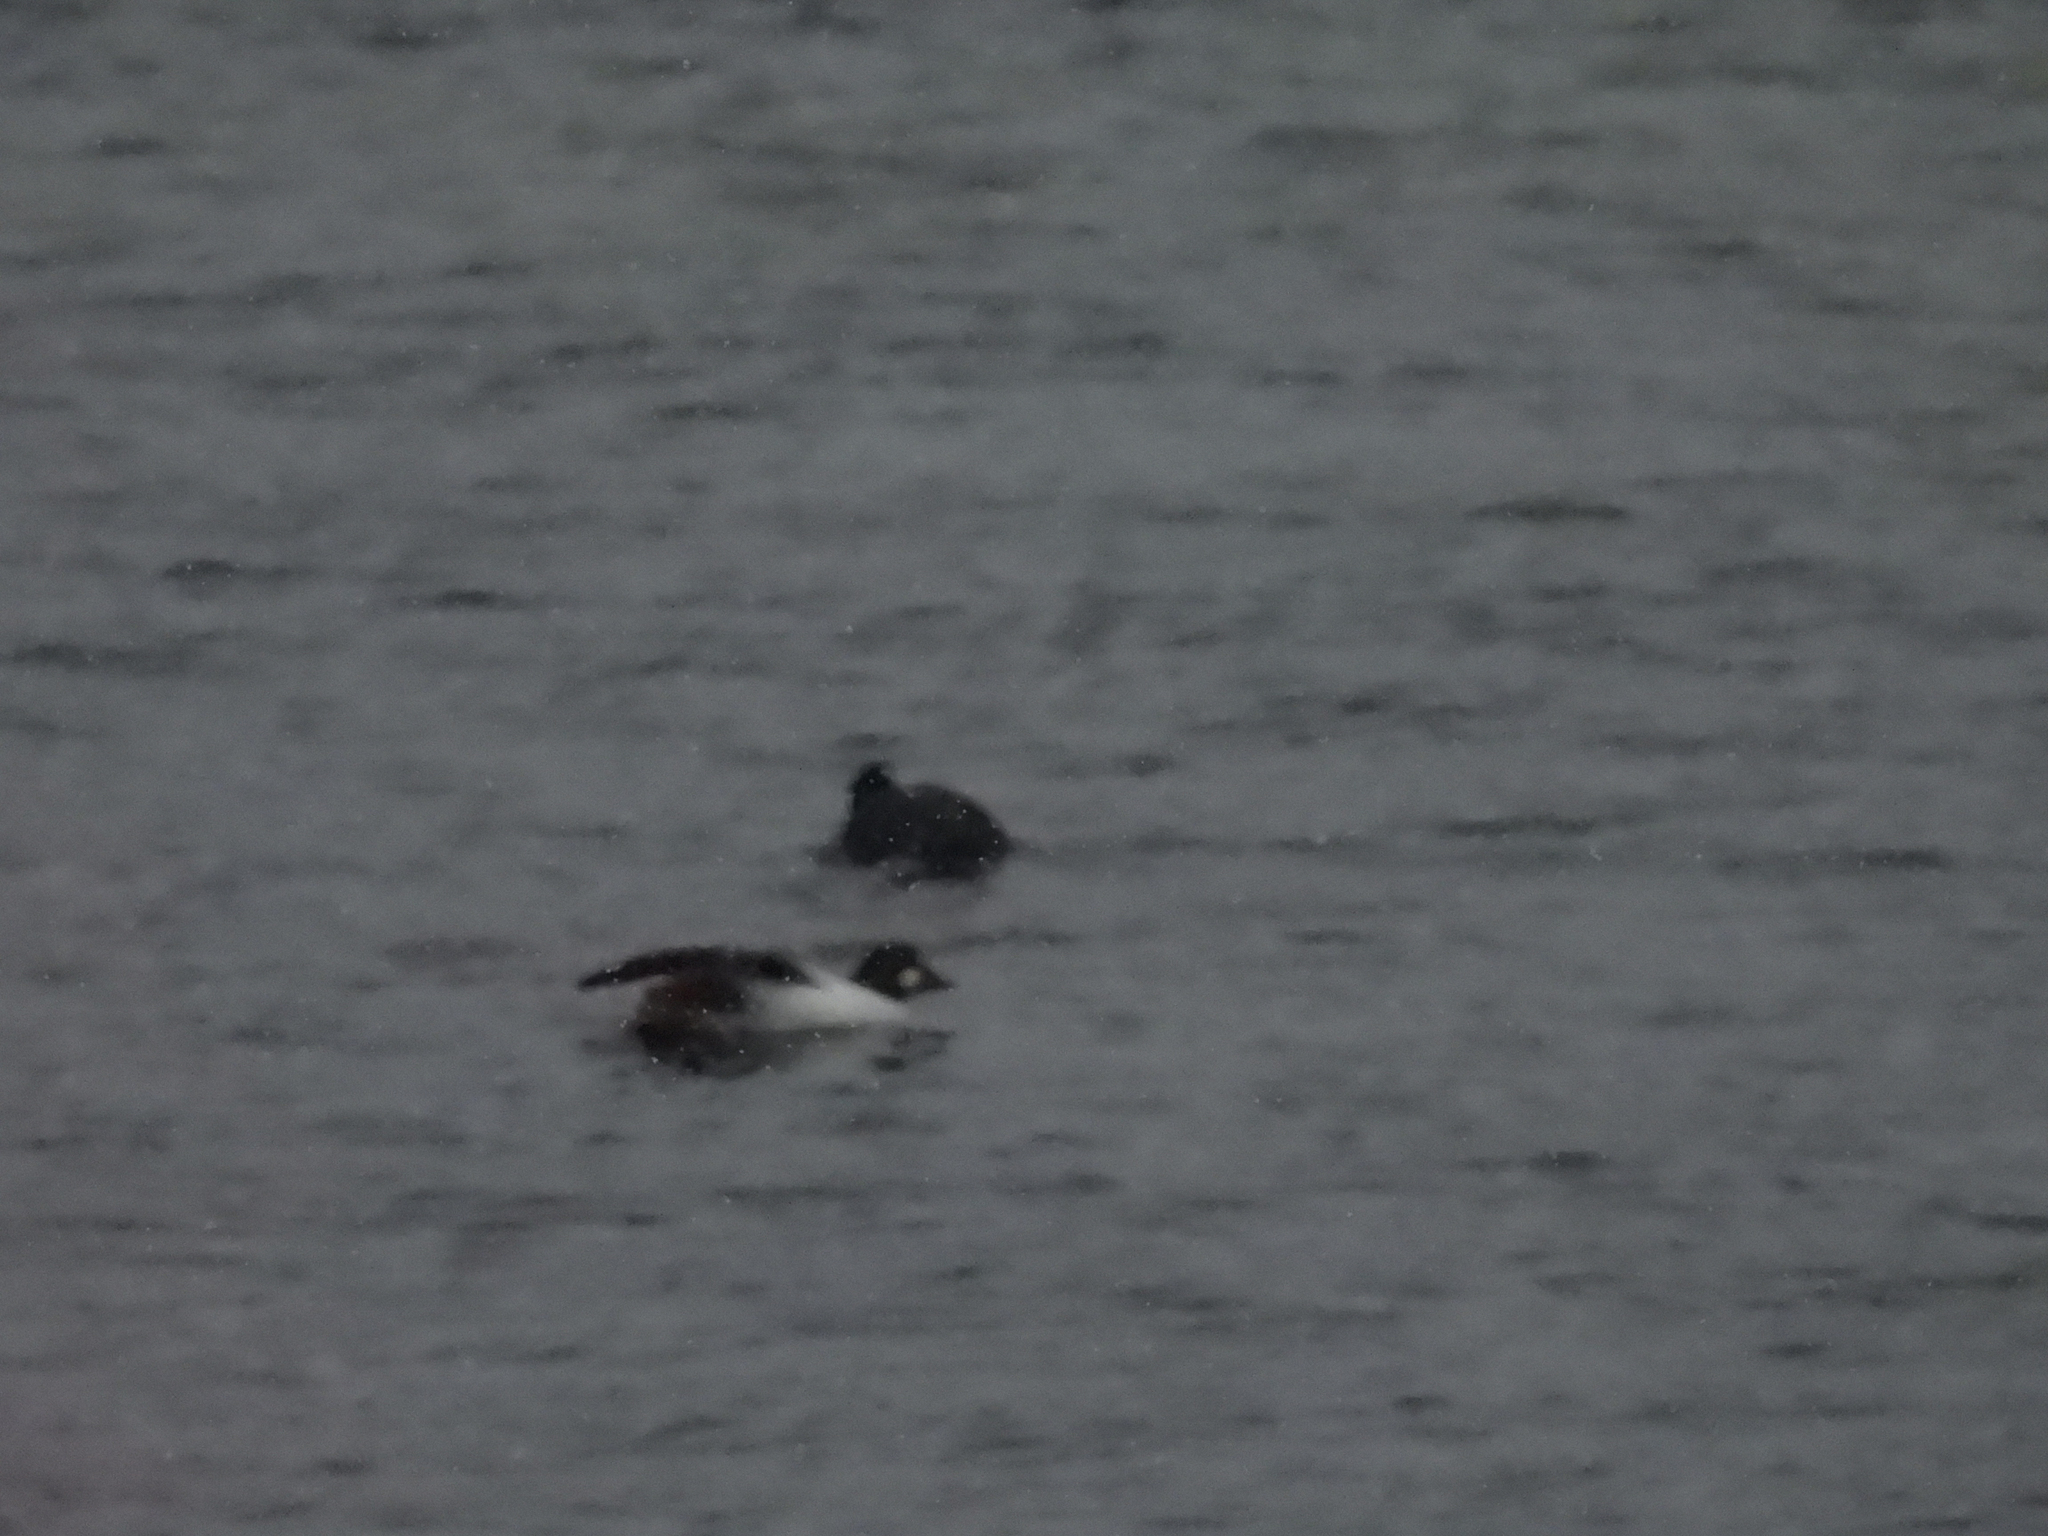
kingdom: Animalia
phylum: Chordata
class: Aves
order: Anseriformes
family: Anatidae
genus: Bucephala
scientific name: Bucephala clangula
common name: Common goldeneye
